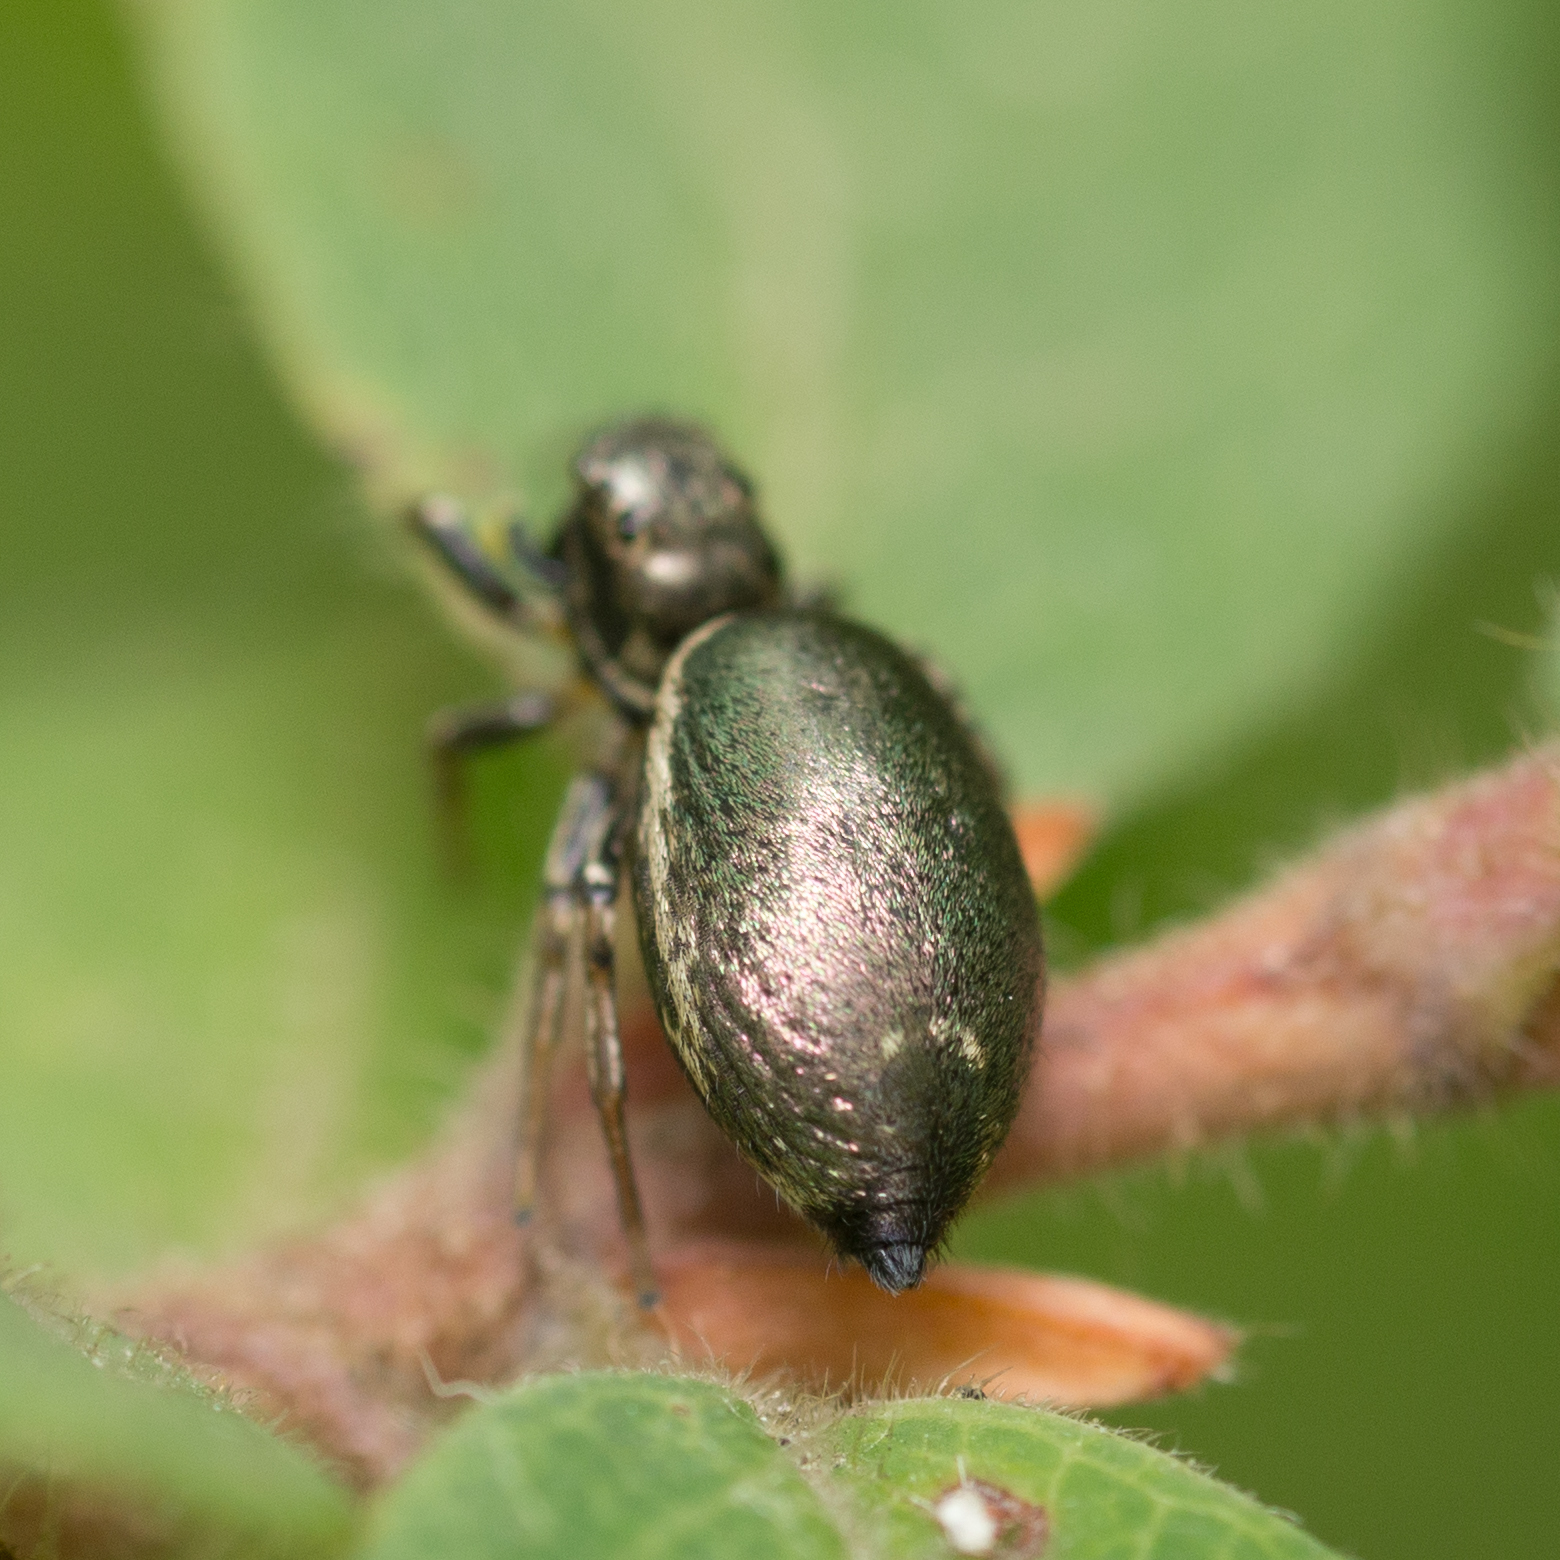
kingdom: Animalia
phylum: Arthropoda
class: Arachnida
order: Araneae
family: Salticidae
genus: Heliophanus
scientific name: Heliophanus auratus
